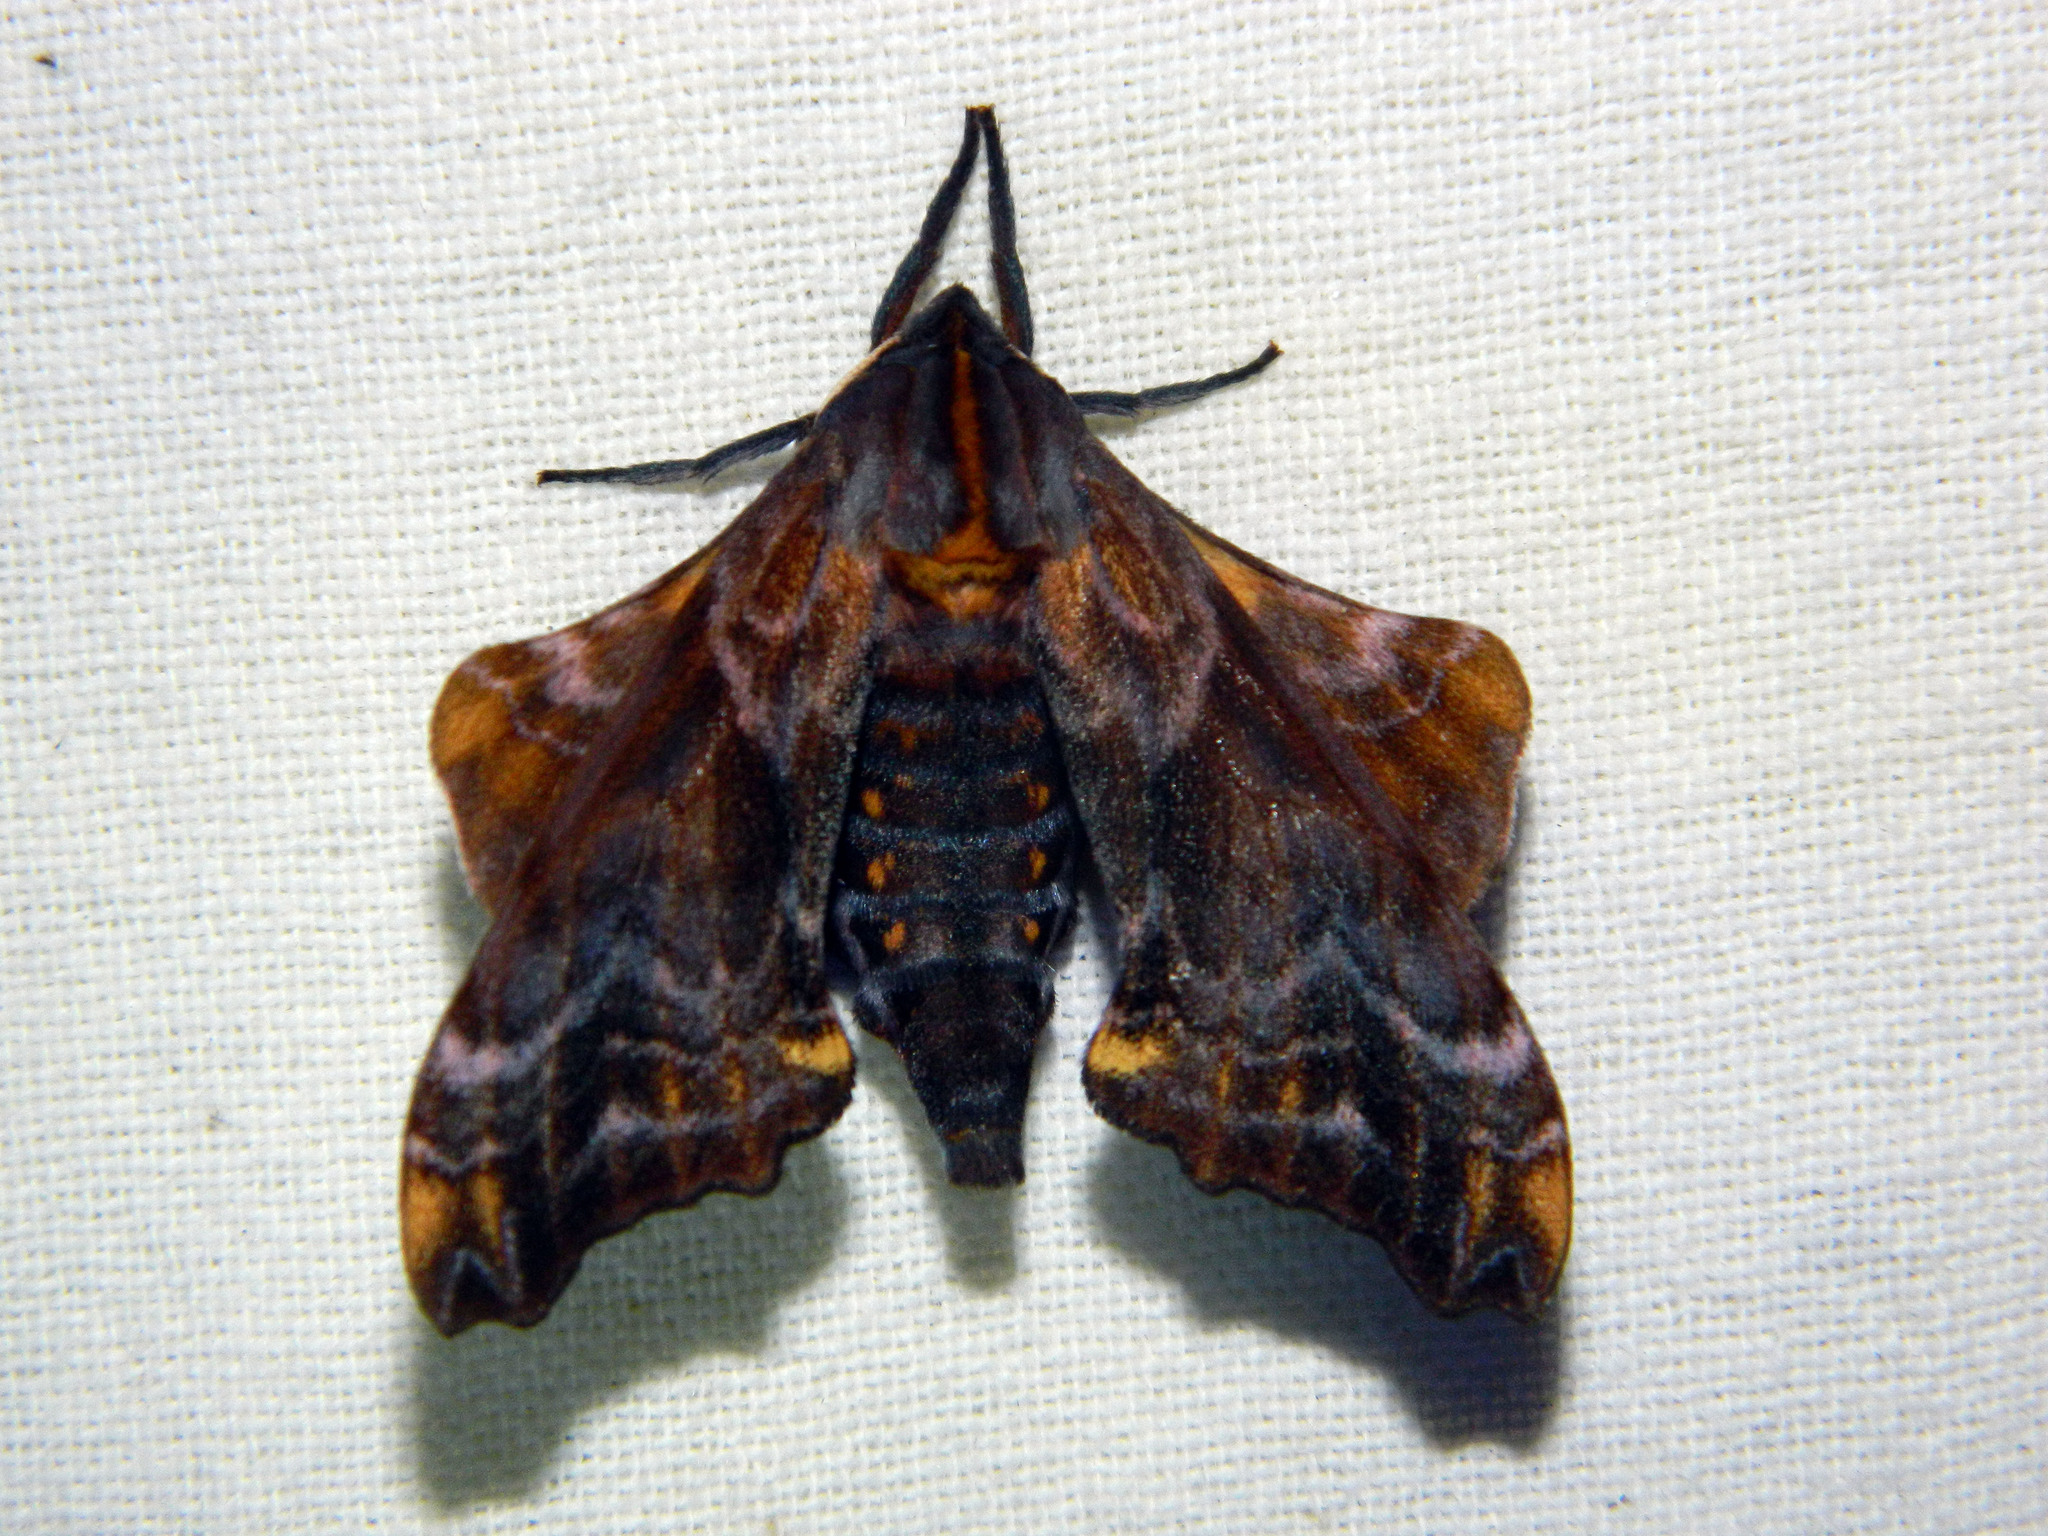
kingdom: Animalia
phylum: Arthropoda
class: Insecta
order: Lepidoptera
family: Sphingidae
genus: Paonias
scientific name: Paonias myops
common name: Small-eyed sphinx
